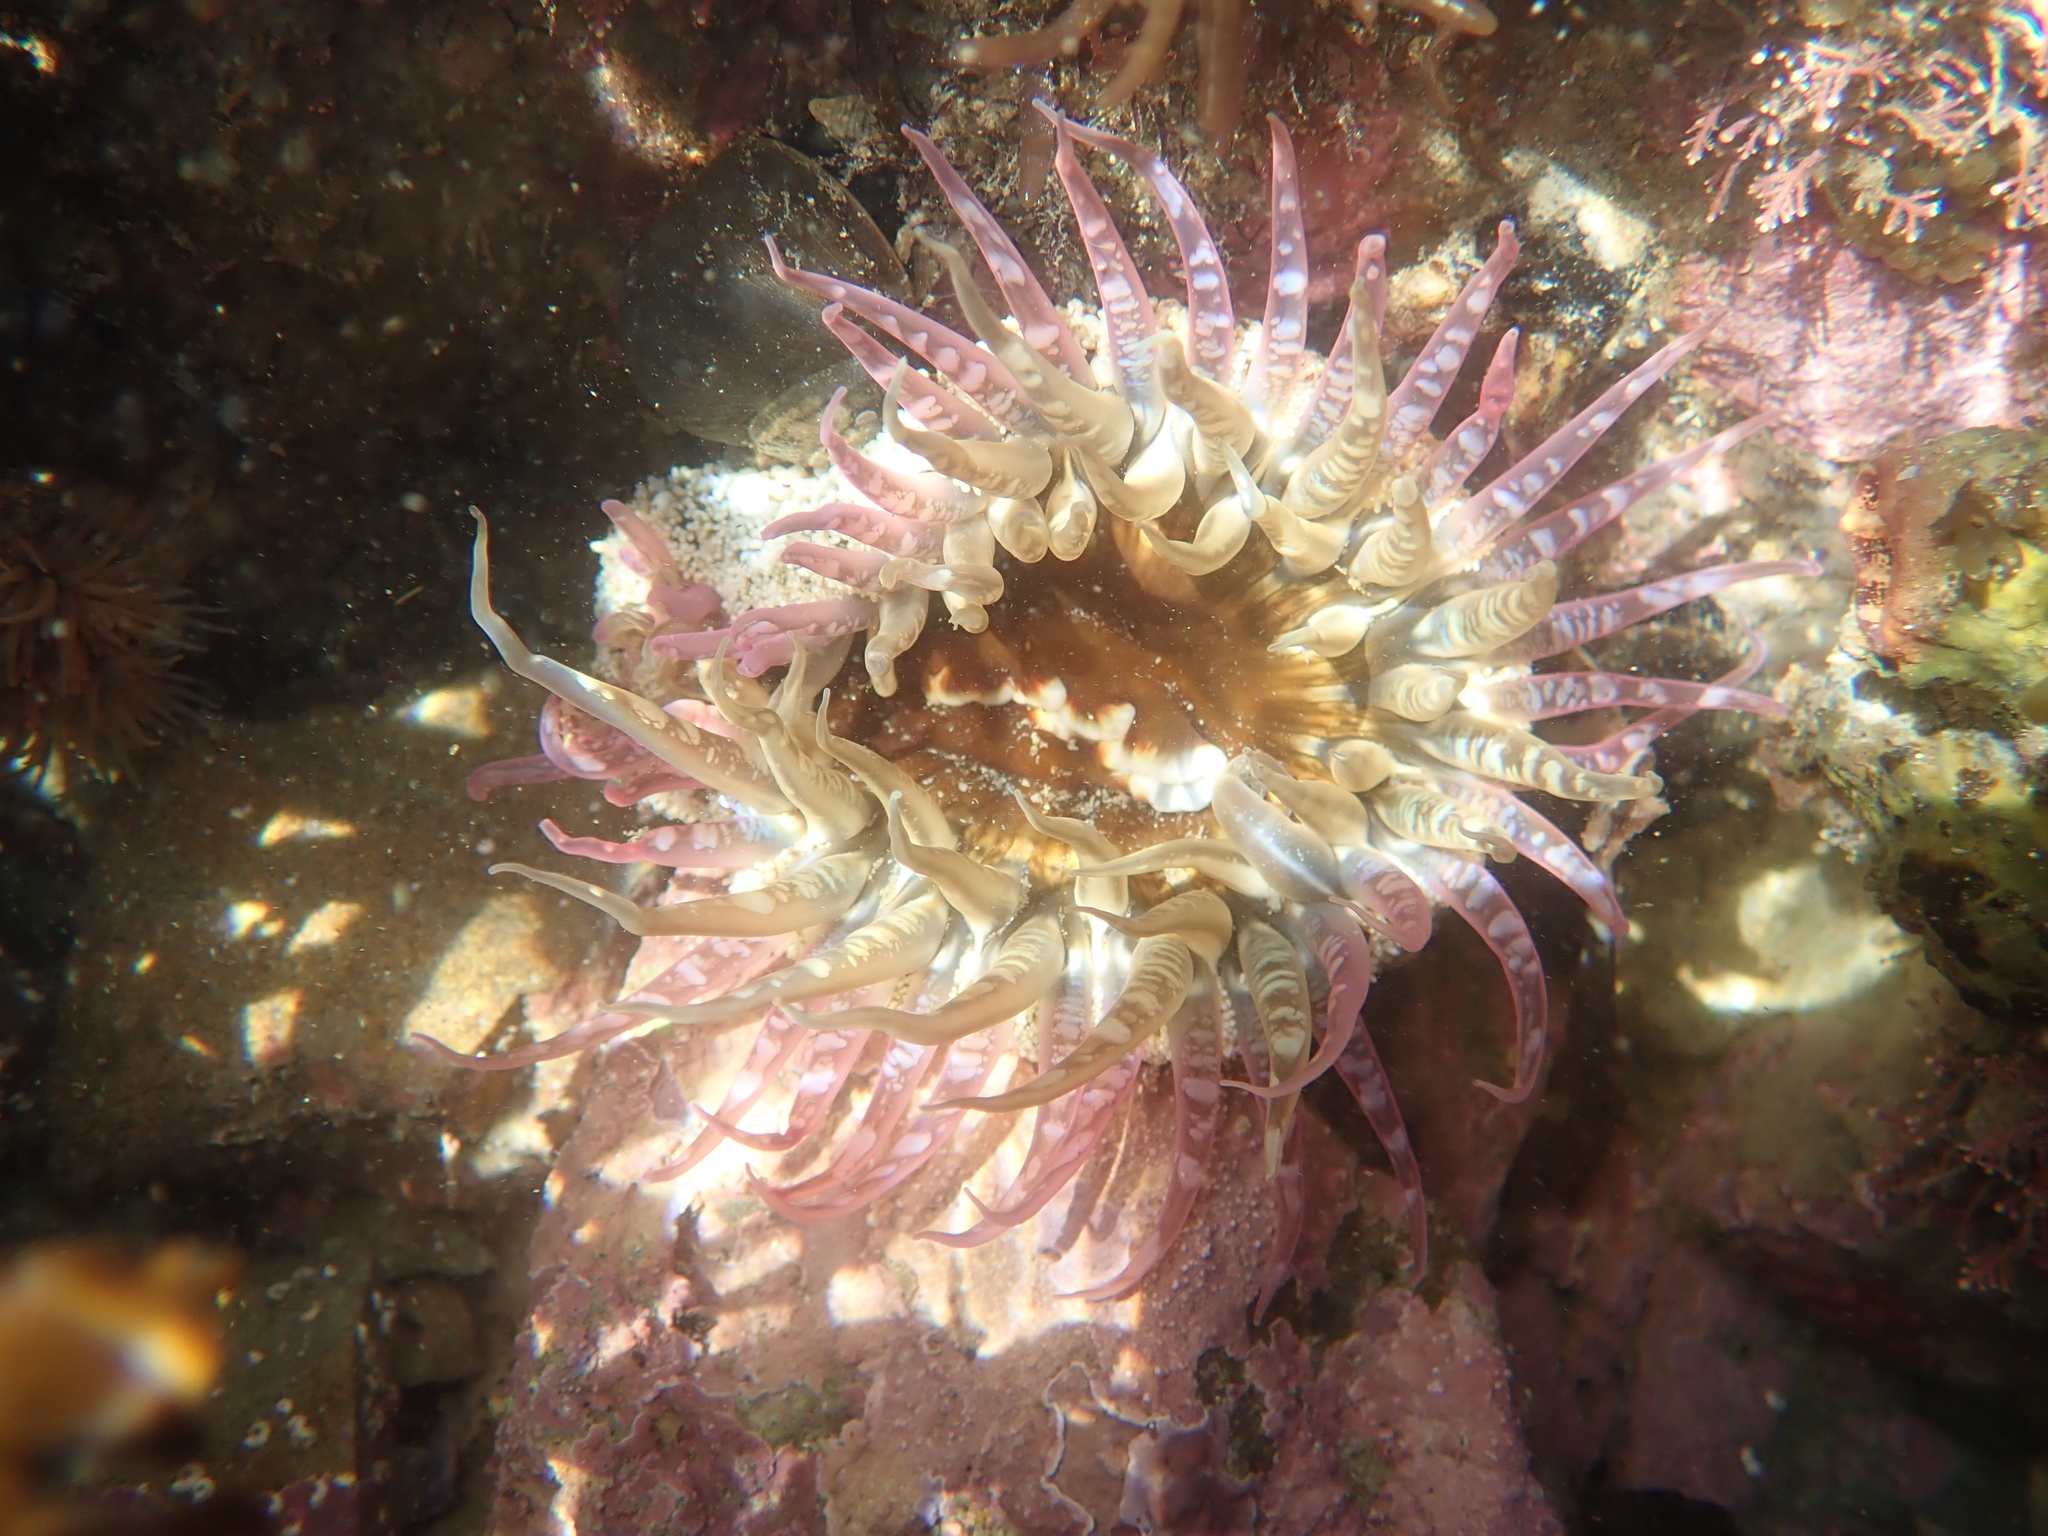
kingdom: Animalia
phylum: Cnidaria
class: Anthozoa
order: Actiniaria
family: Actiniidae
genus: Oulactis
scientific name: Oulactis muscosa
